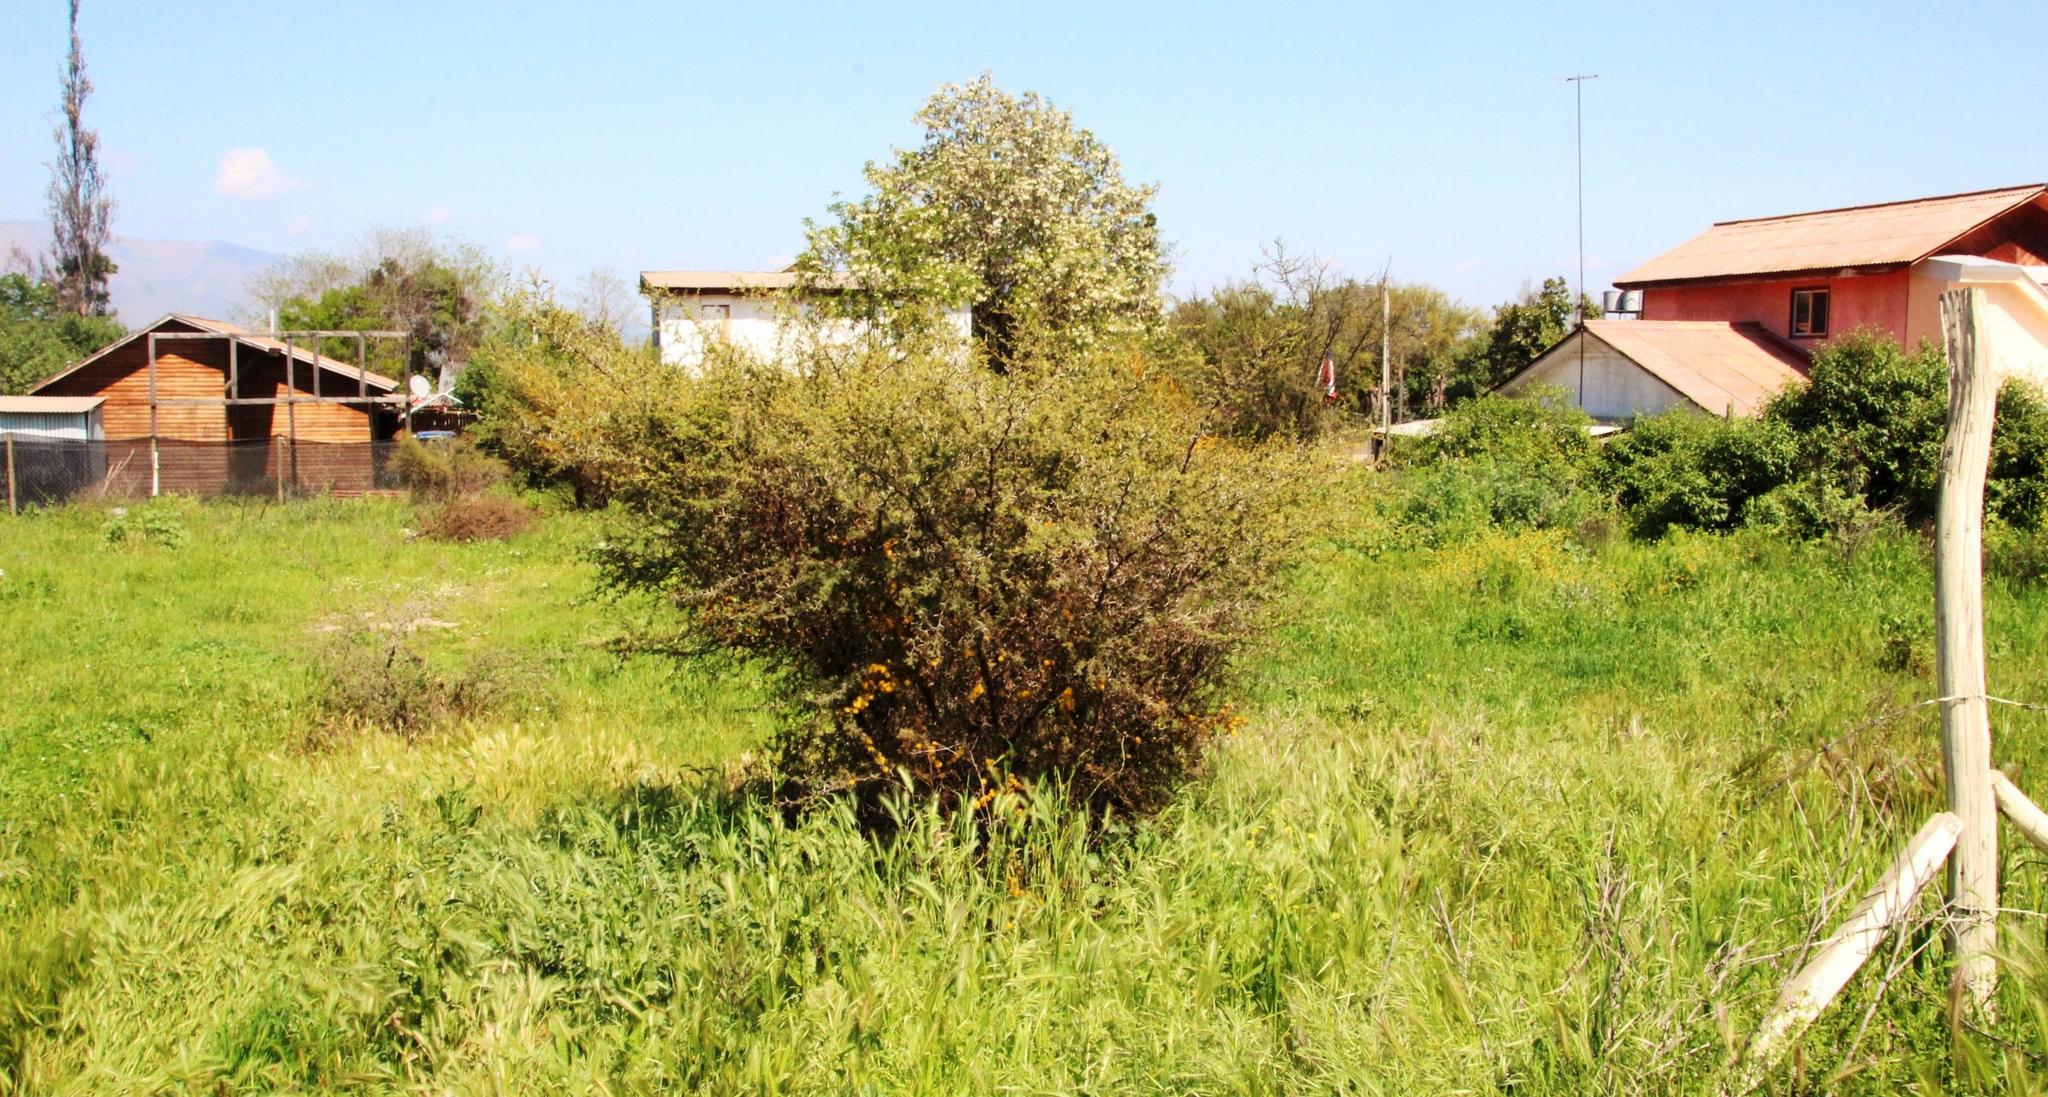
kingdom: Plantae
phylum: Tracheophyta
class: Magnoliopsida
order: Fabales
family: Fabaceae
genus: Vachellia
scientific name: Vachellia caven
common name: Roman cassie
